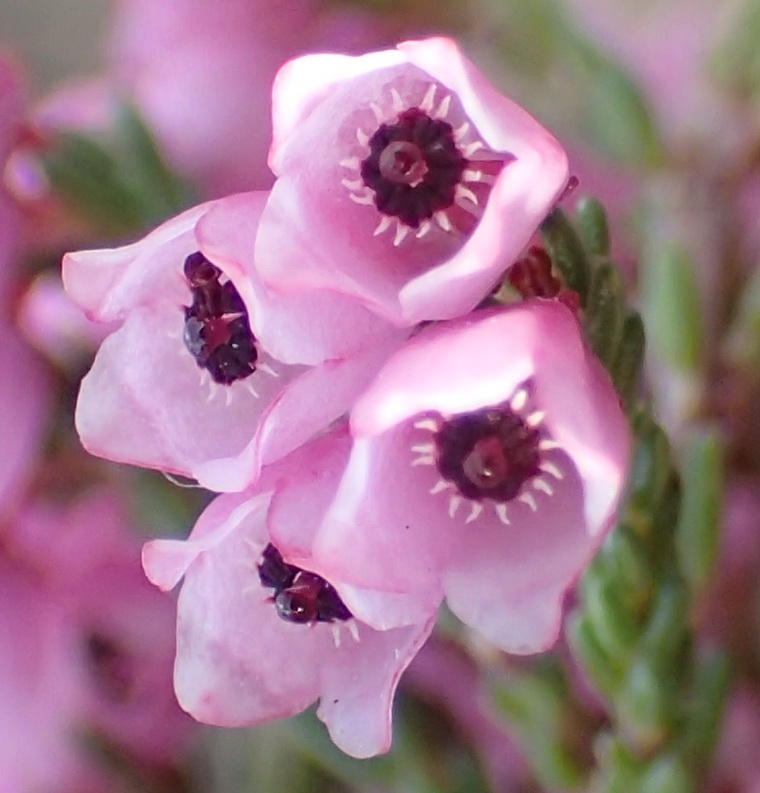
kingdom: Plantae
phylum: Tracheophyta
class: Magnoliopsida
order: Ericales
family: Ericaceae
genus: Erica
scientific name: Erica quadrangularis
